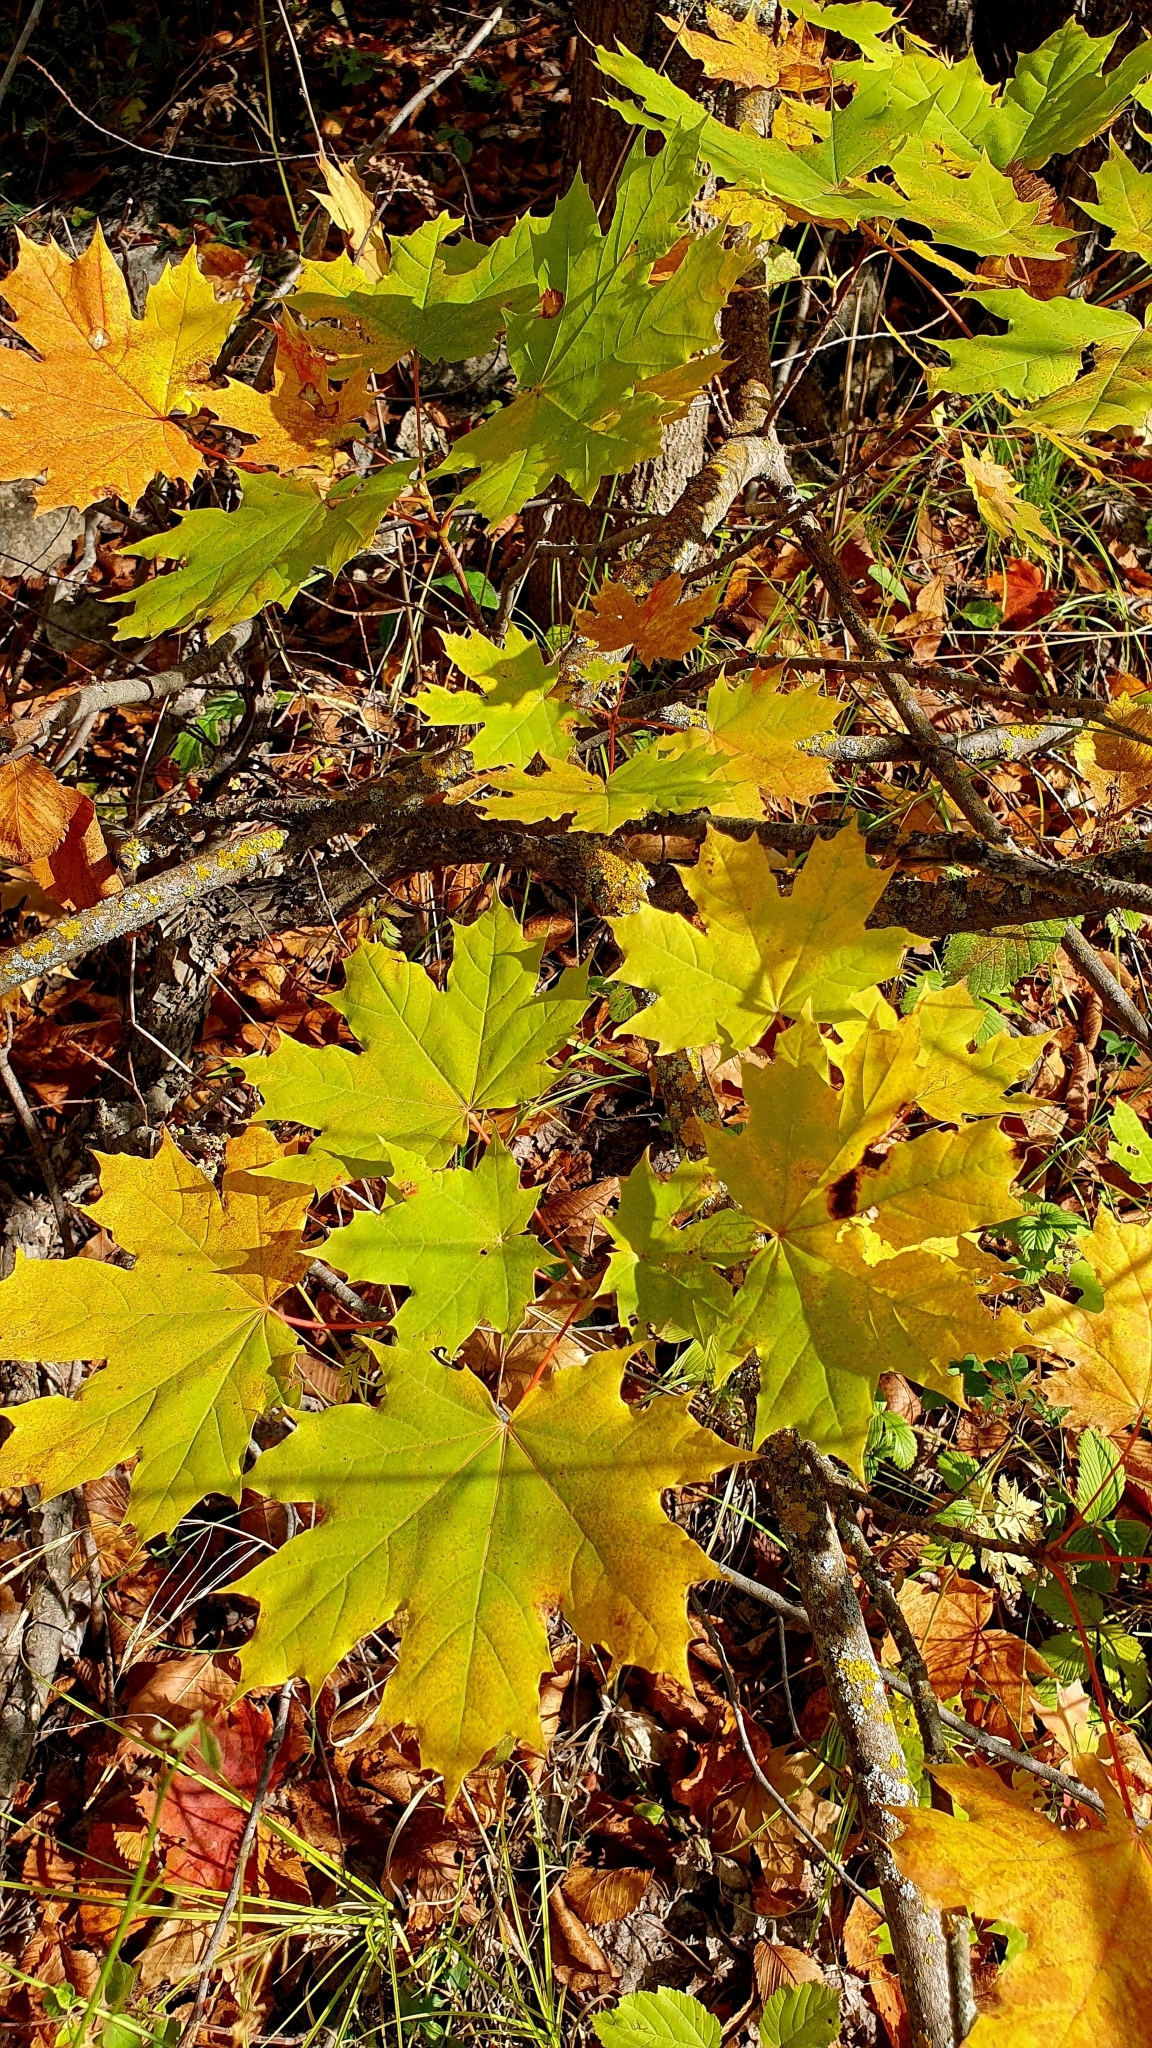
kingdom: Plantae
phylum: Tracheophyta
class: Magnoliopsida
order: Sapindales
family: Sapindaceae
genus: Acer
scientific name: Acer platanoides
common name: Norway maple
